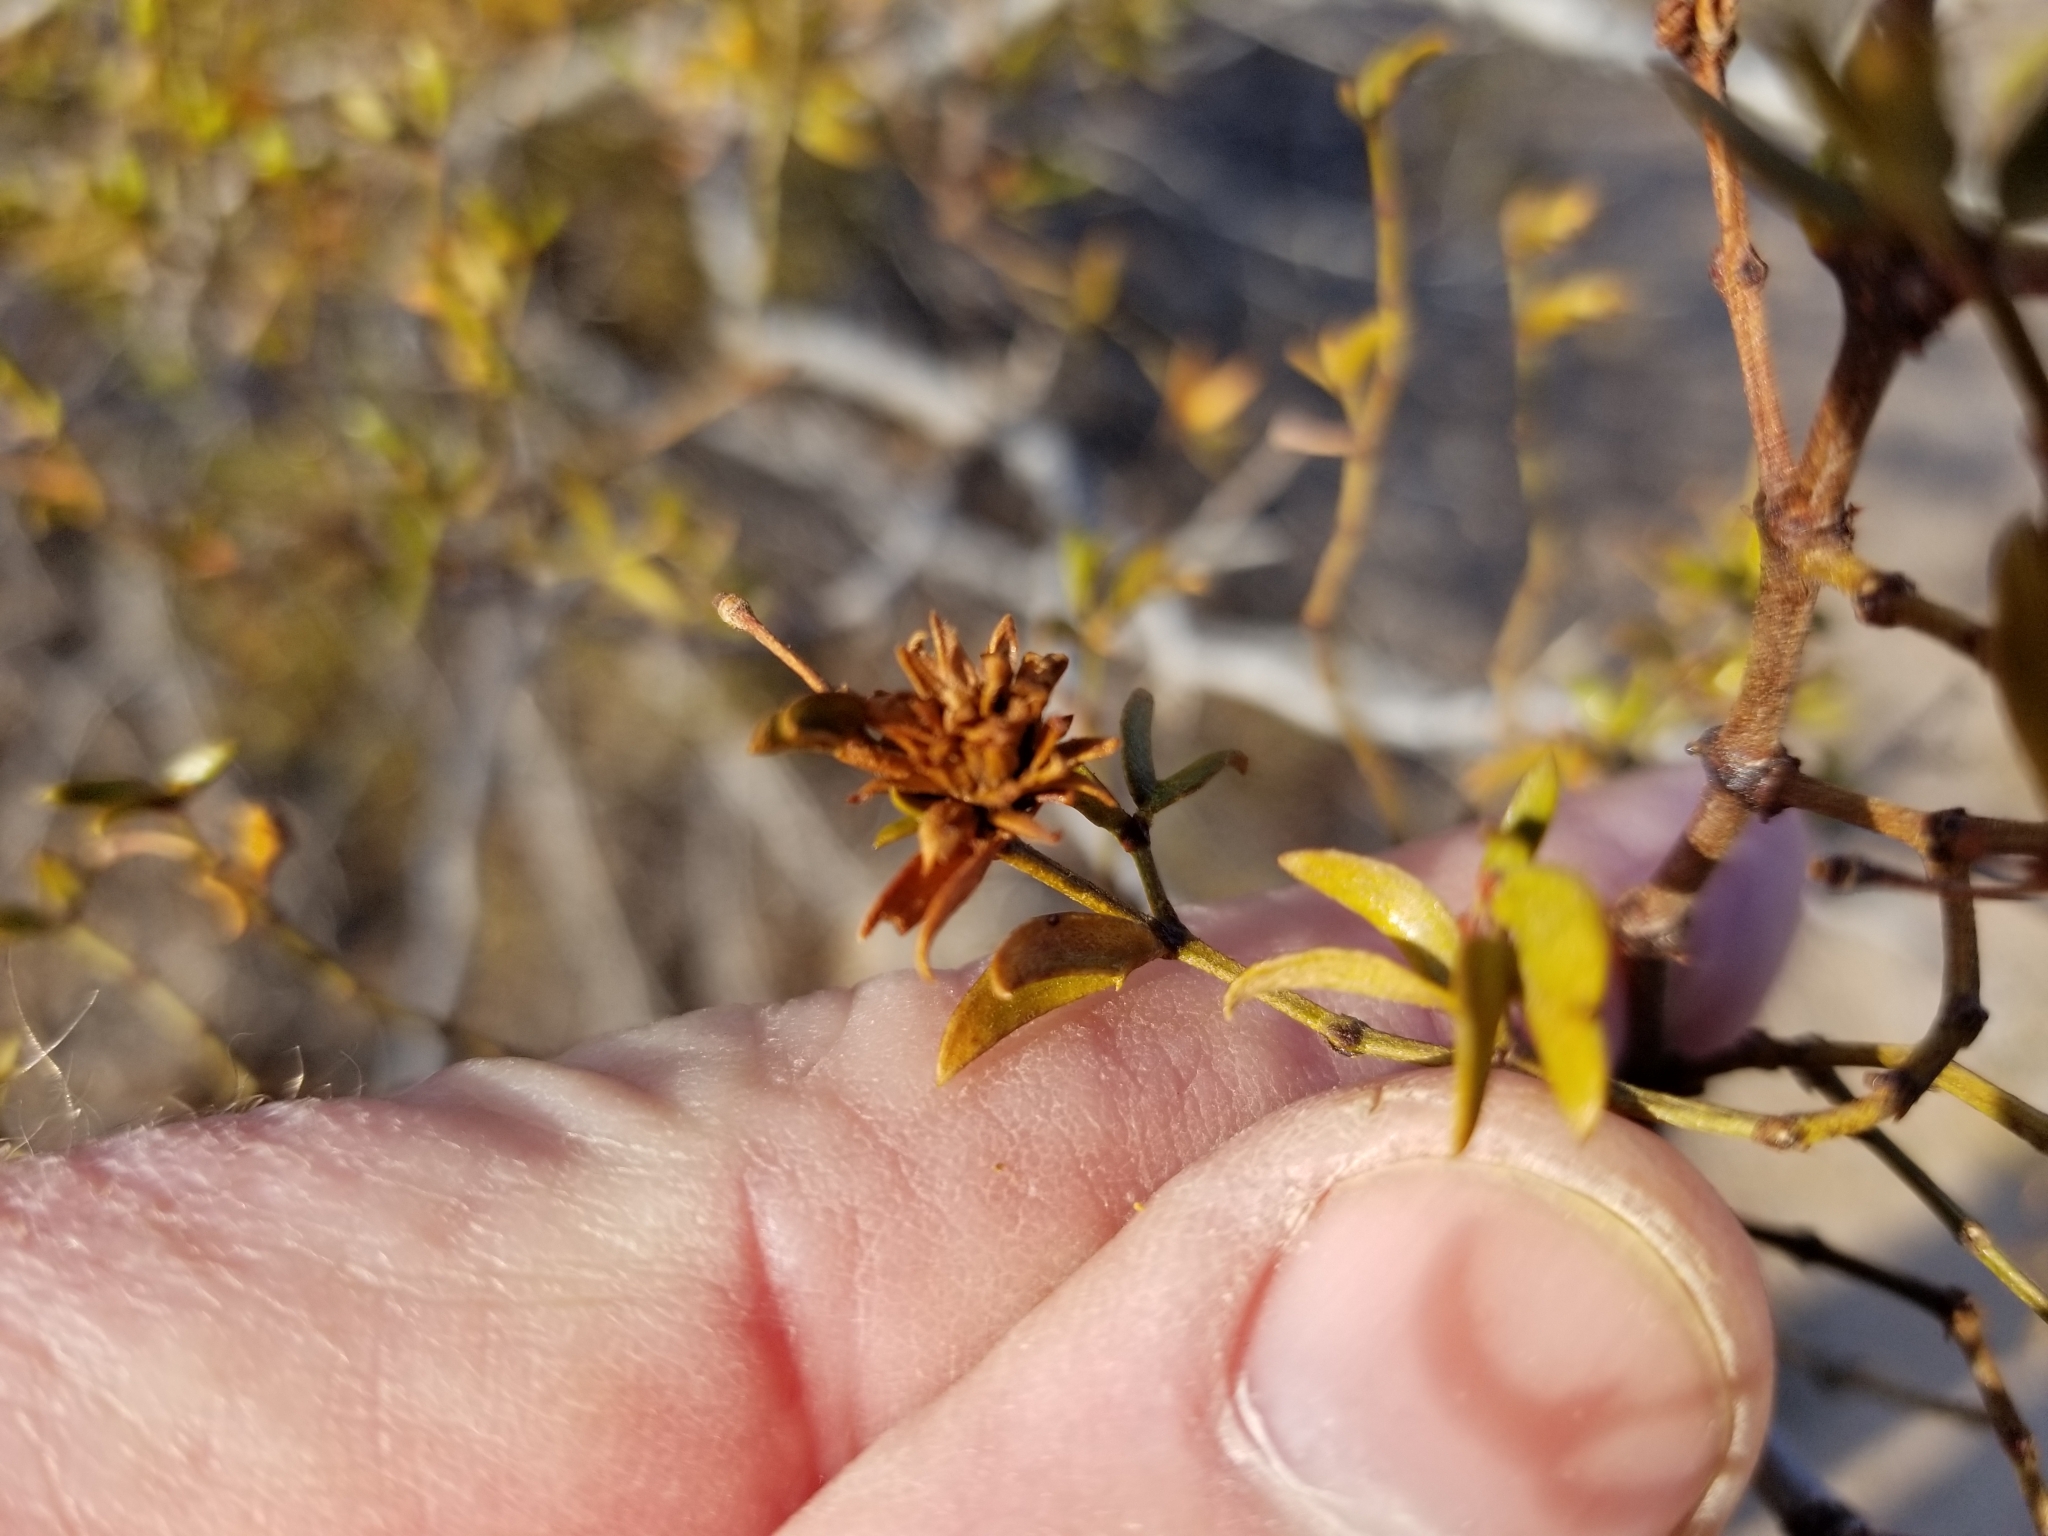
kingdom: Animalia
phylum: Arthropoda
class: Insecta
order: Diptera
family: Cecidomyiidae
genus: Asphondylia
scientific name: Asphondylia rosetta
